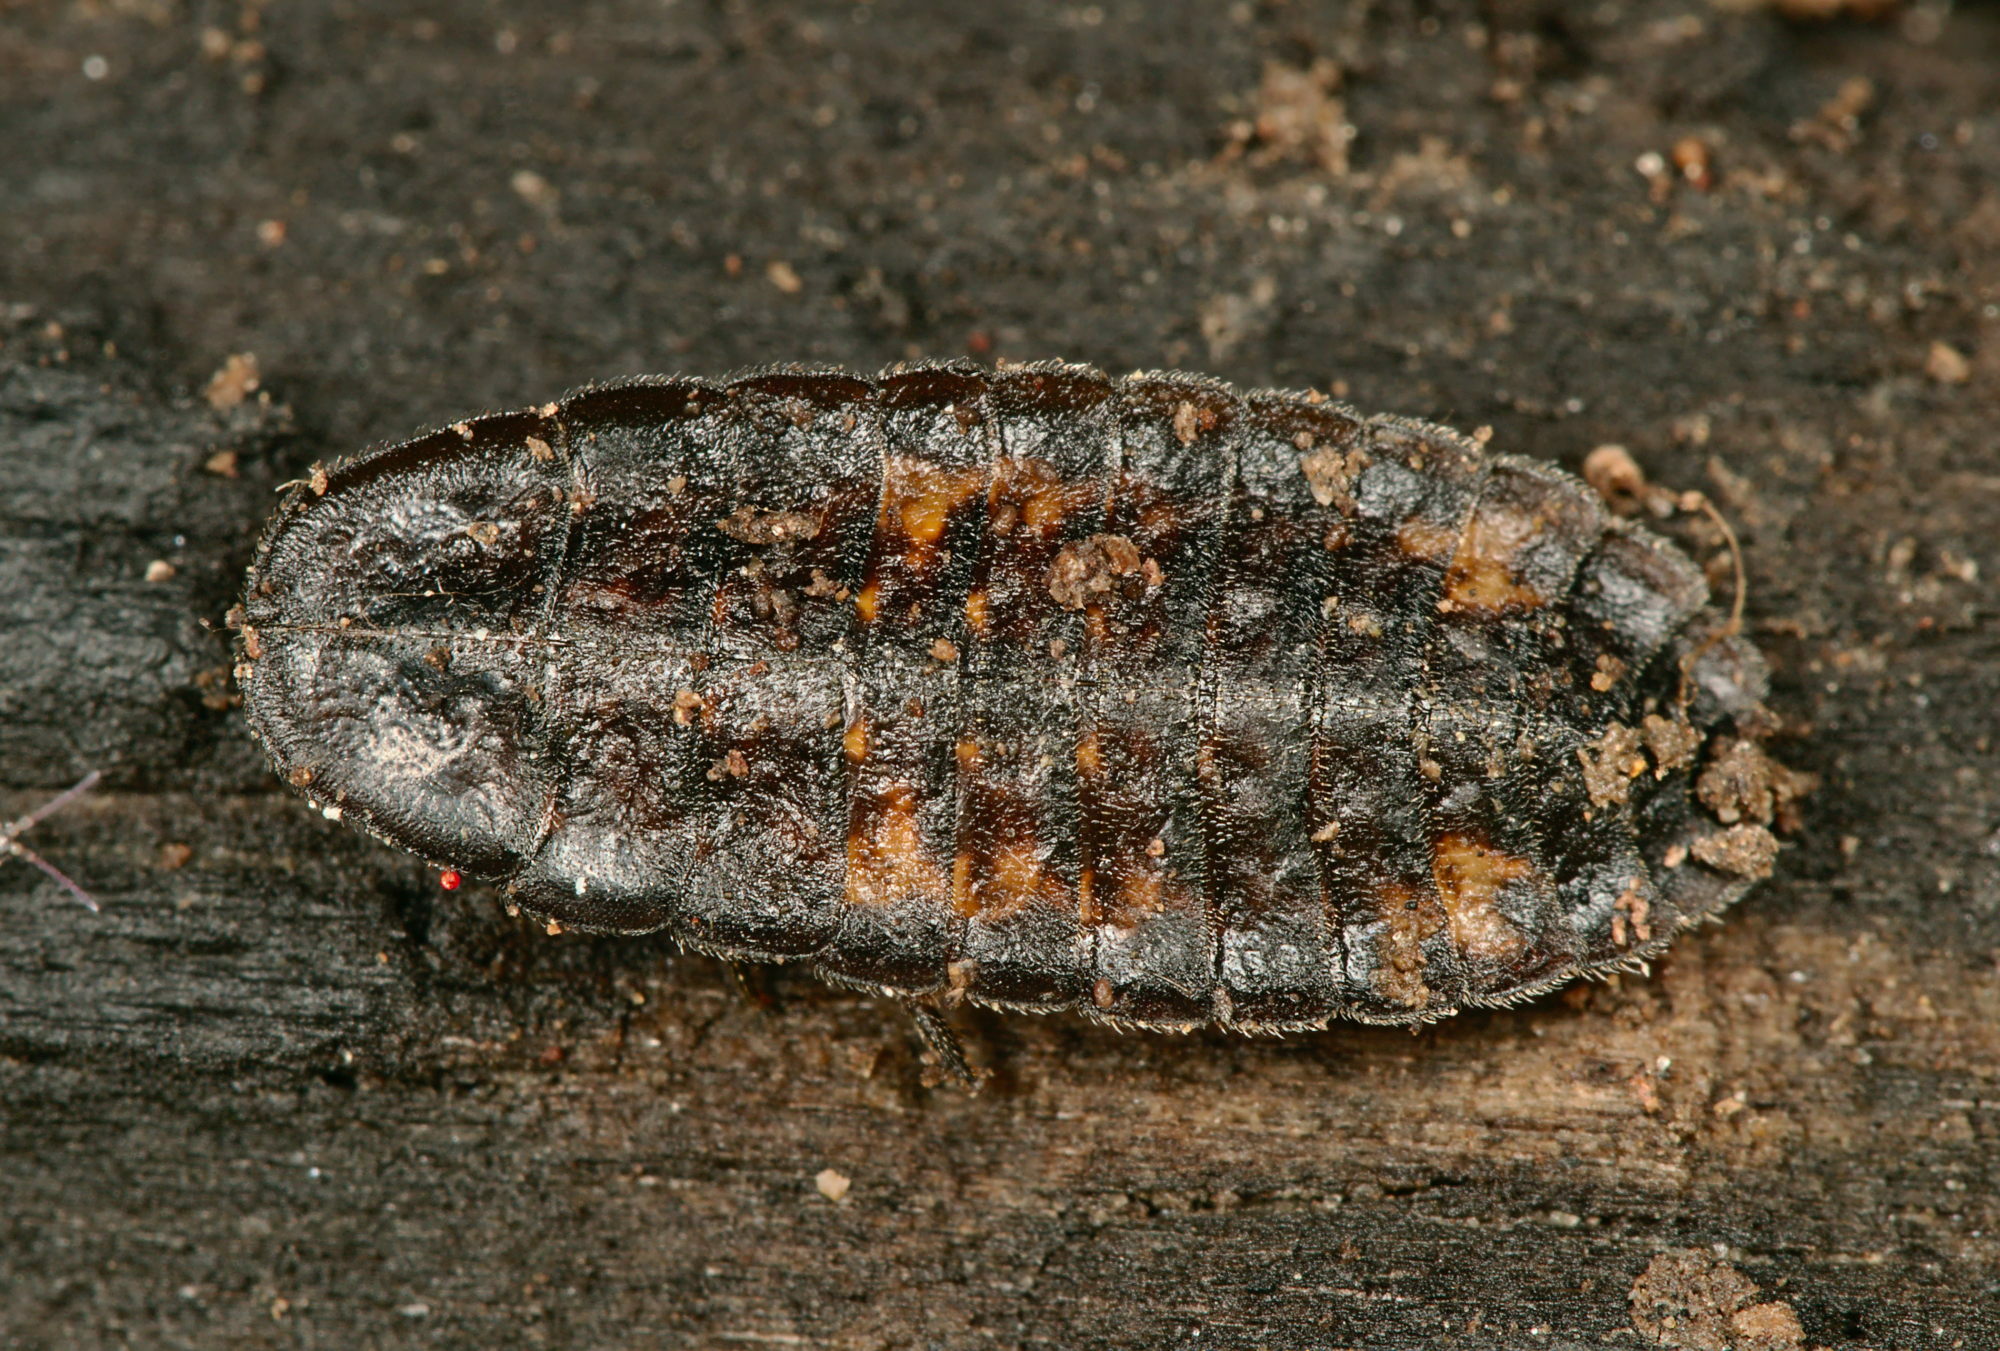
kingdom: Animalia
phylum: Arthropoda
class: Insecta
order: Coleoptera
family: Lampyridae
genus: Lamprohiza
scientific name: Lamprohiza splendidula
